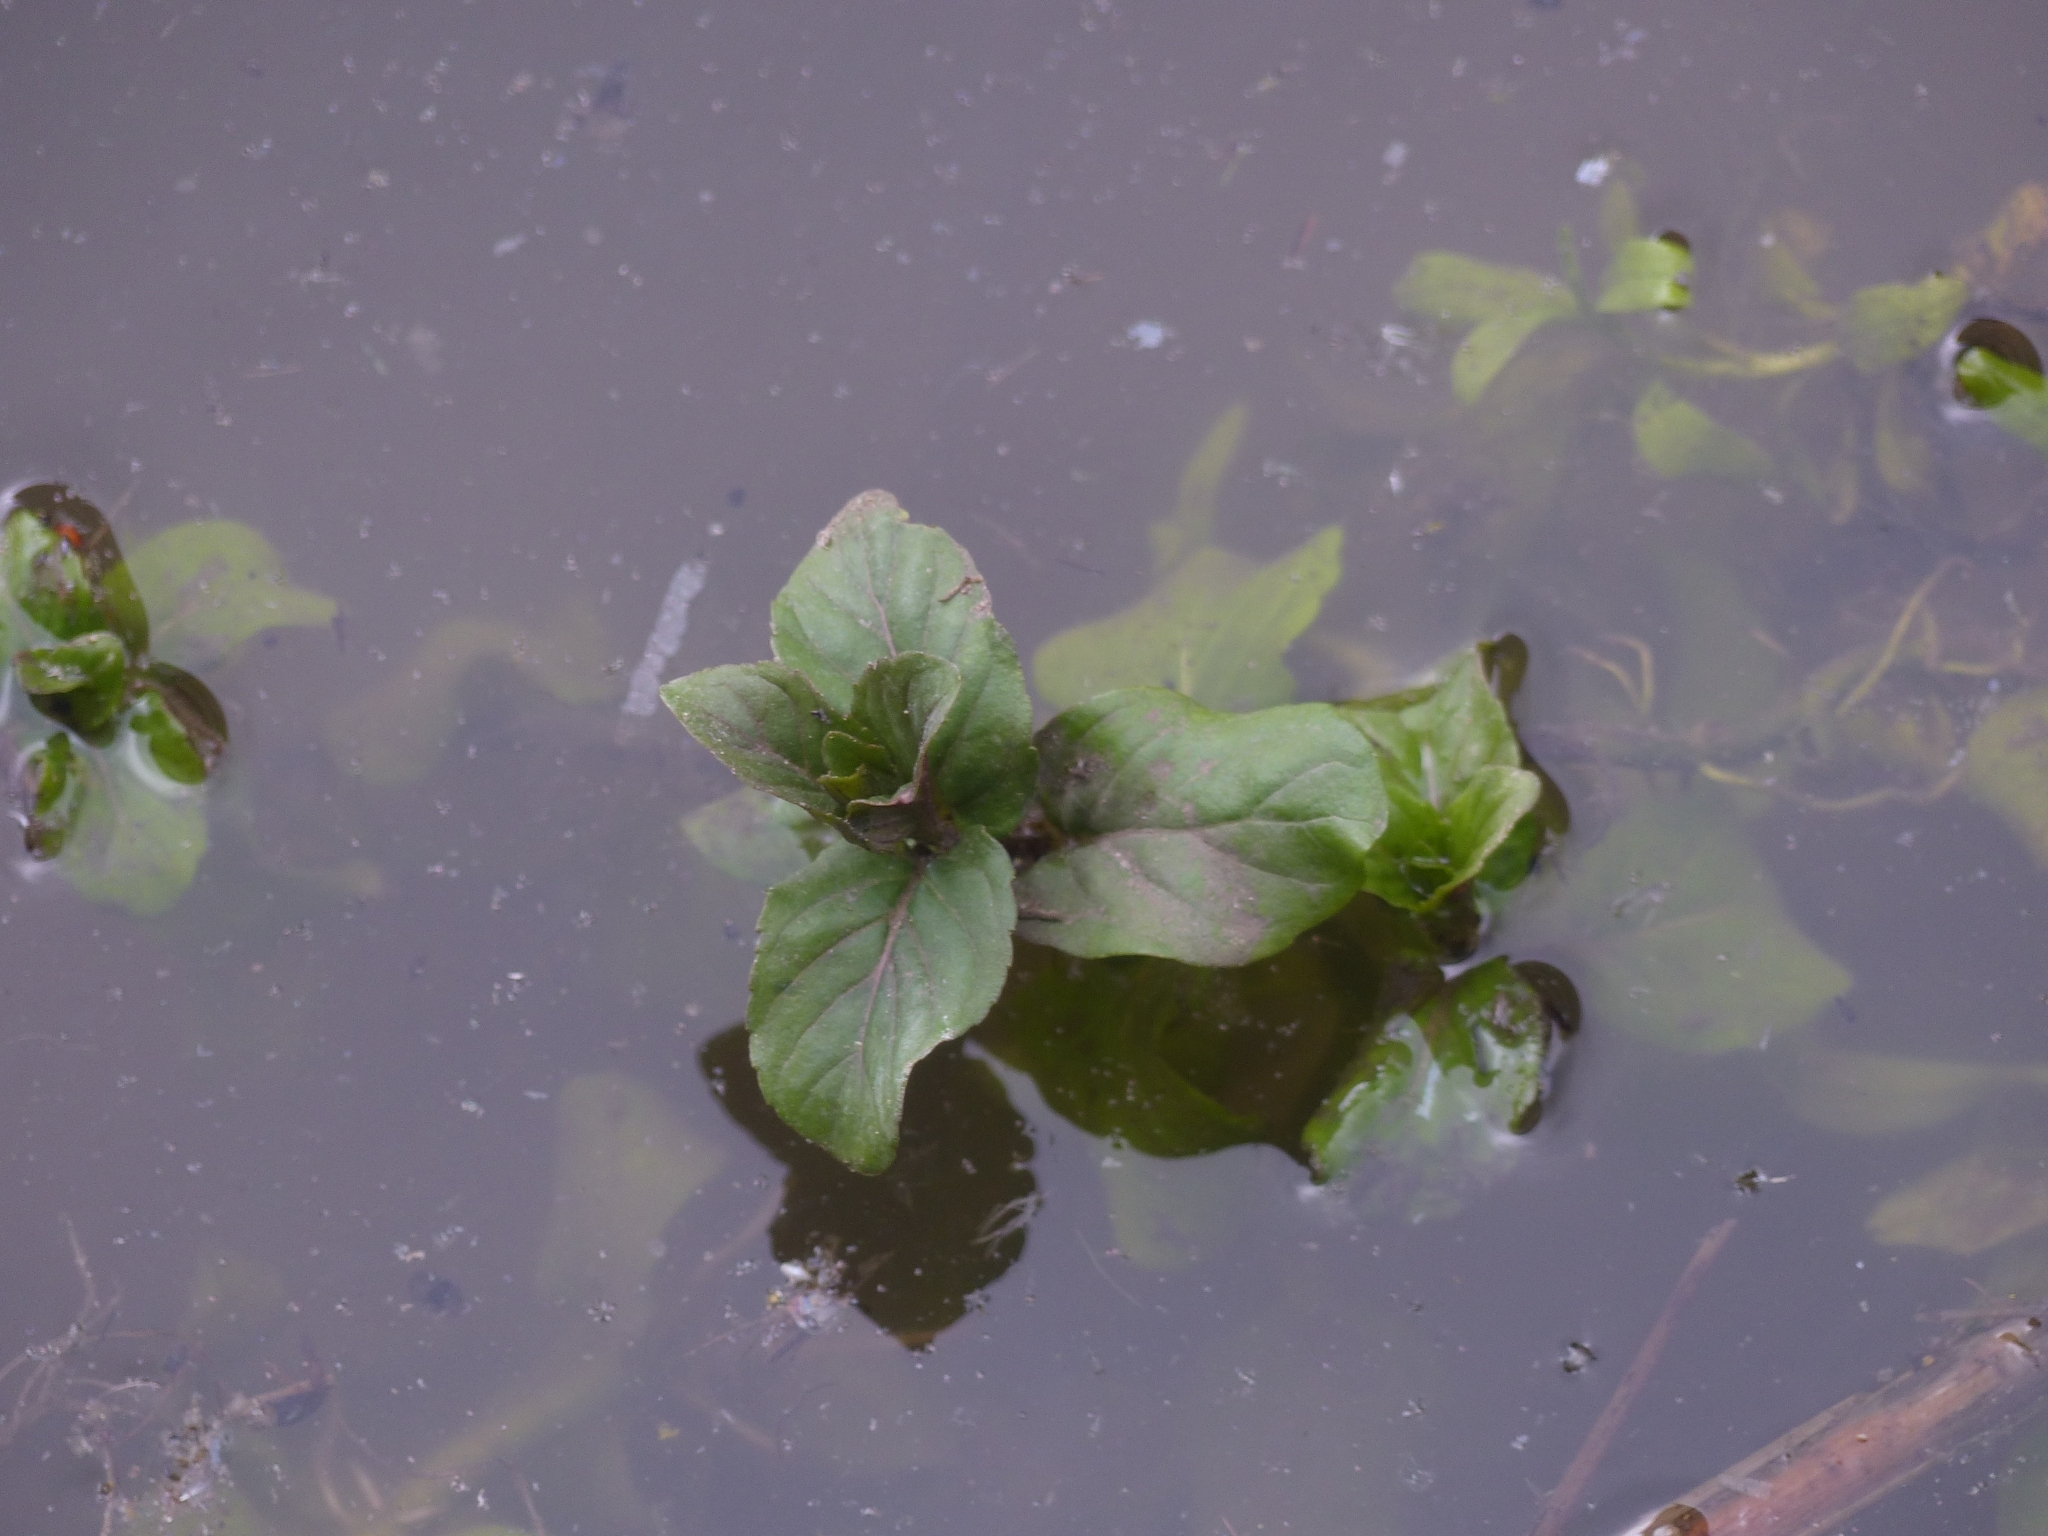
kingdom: Plantae
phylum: Tracheophyta
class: Magnoliopsida
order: Lamiales
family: Lamiaceae
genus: Mentha
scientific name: Mentha aquatica
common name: Water mint
